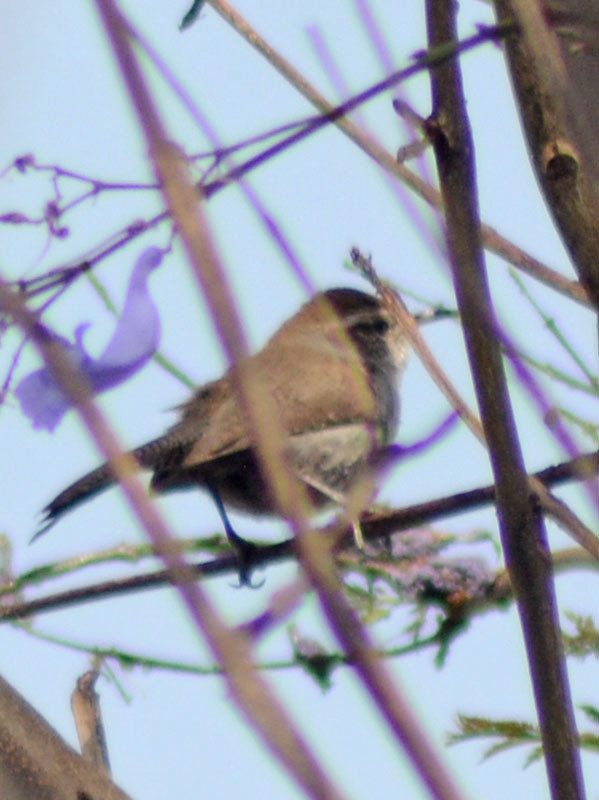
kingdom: Animalia
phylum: Chordata
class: Aves
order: Passeriformes
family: Troglodytidae
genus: Thryomanes
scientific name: Thryomanes bewickii
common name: Bewick's wren
